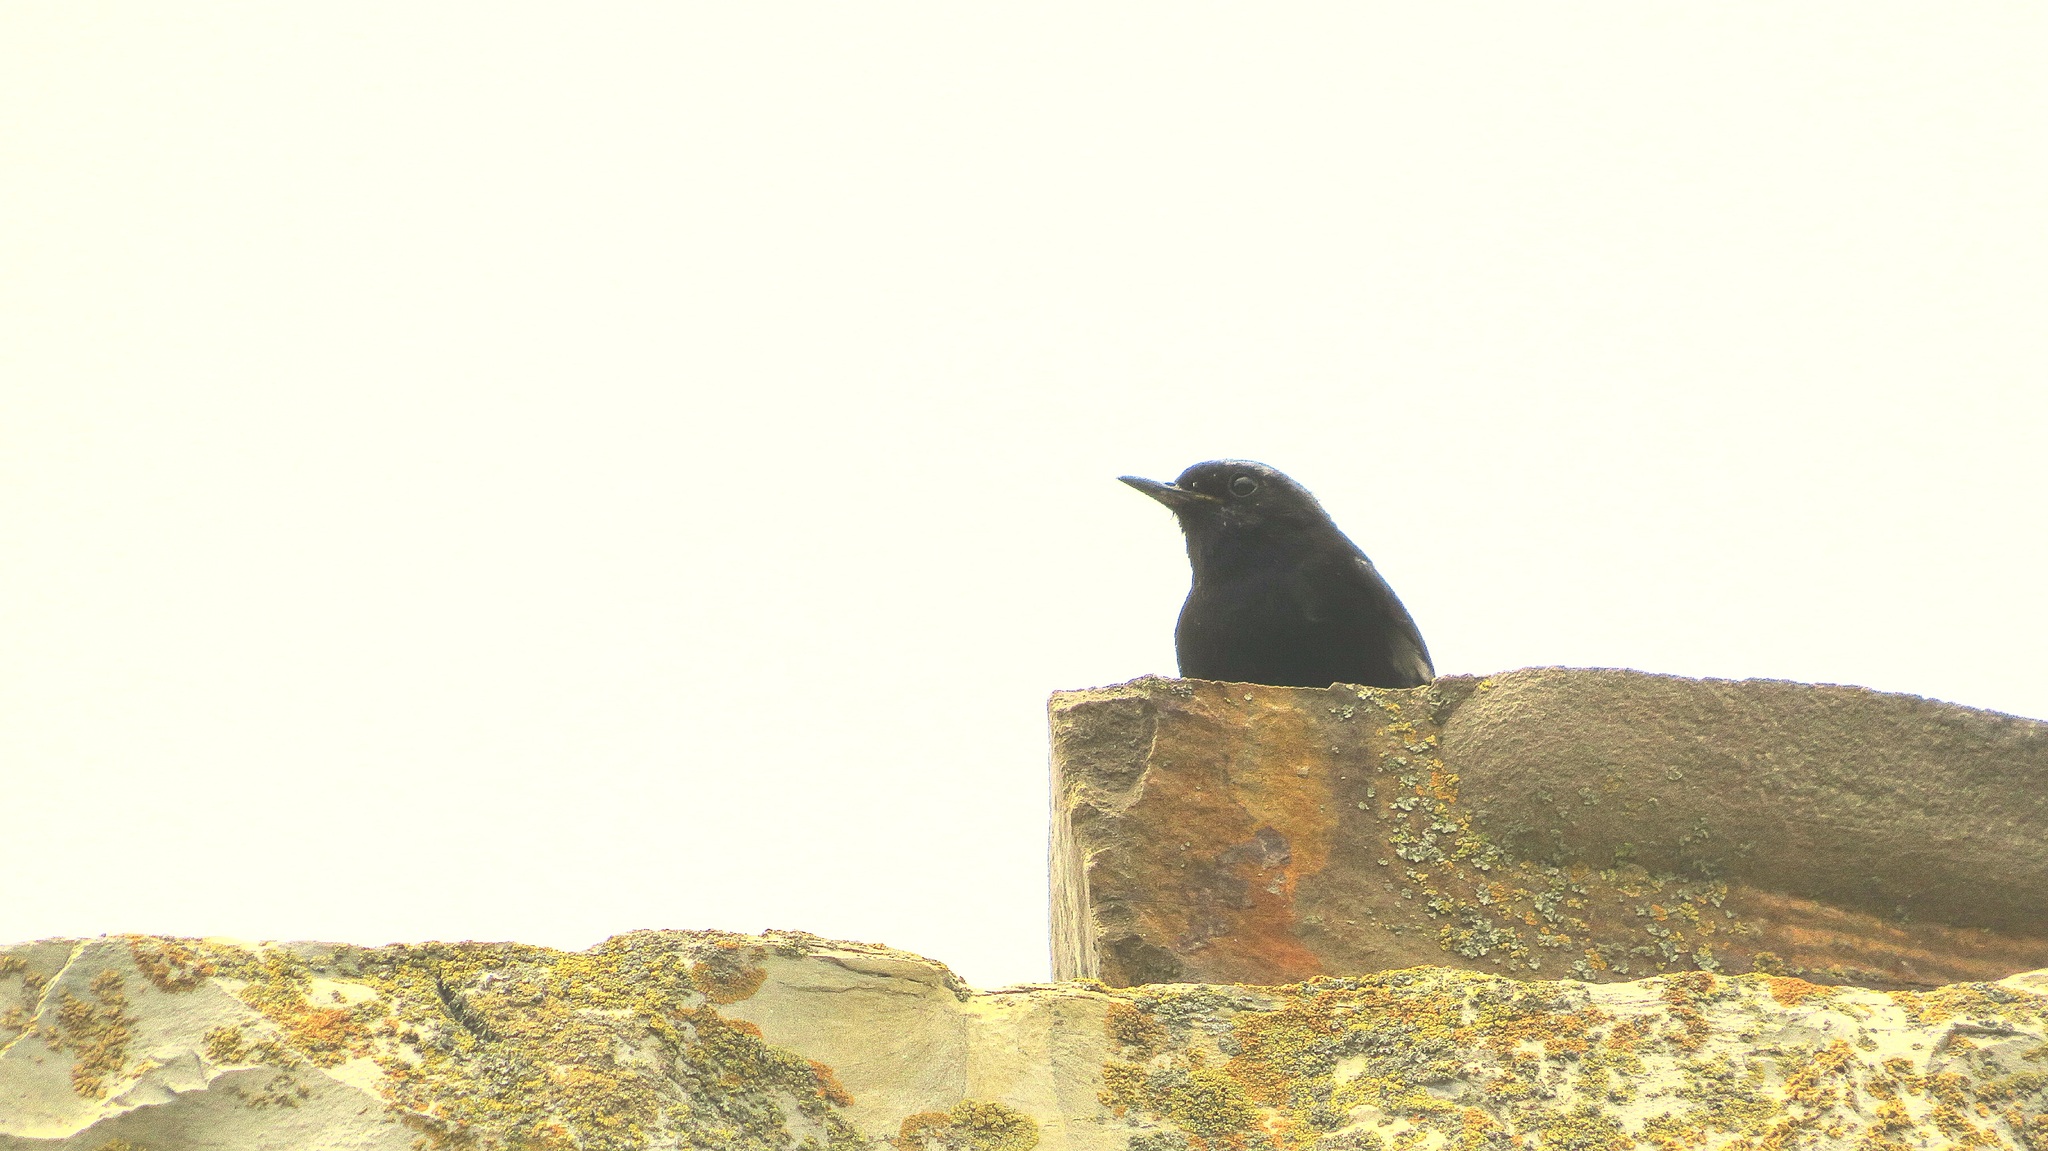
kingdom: Animalia
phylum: Chordata
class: Aves
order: Passeriformes
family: Muscicapidae
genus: Phoenicurus
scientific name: Phoenicurus ochruros
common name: Black redstart
